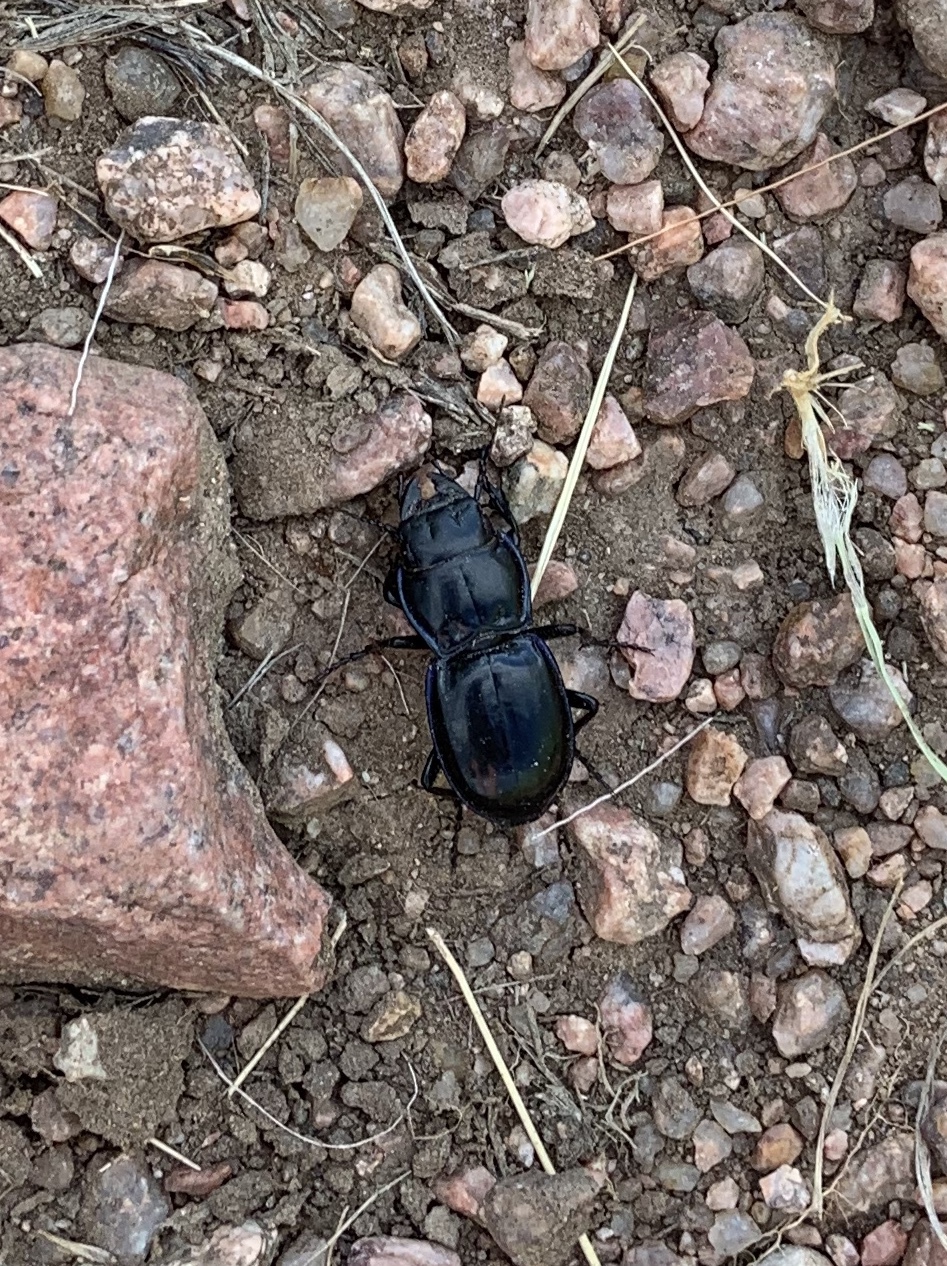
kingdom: Animalia
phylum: Arthropoda
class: Insecta
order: Coleoptera
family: Carabidae
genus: Pasimachus
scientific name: Pasimachus elongatus
